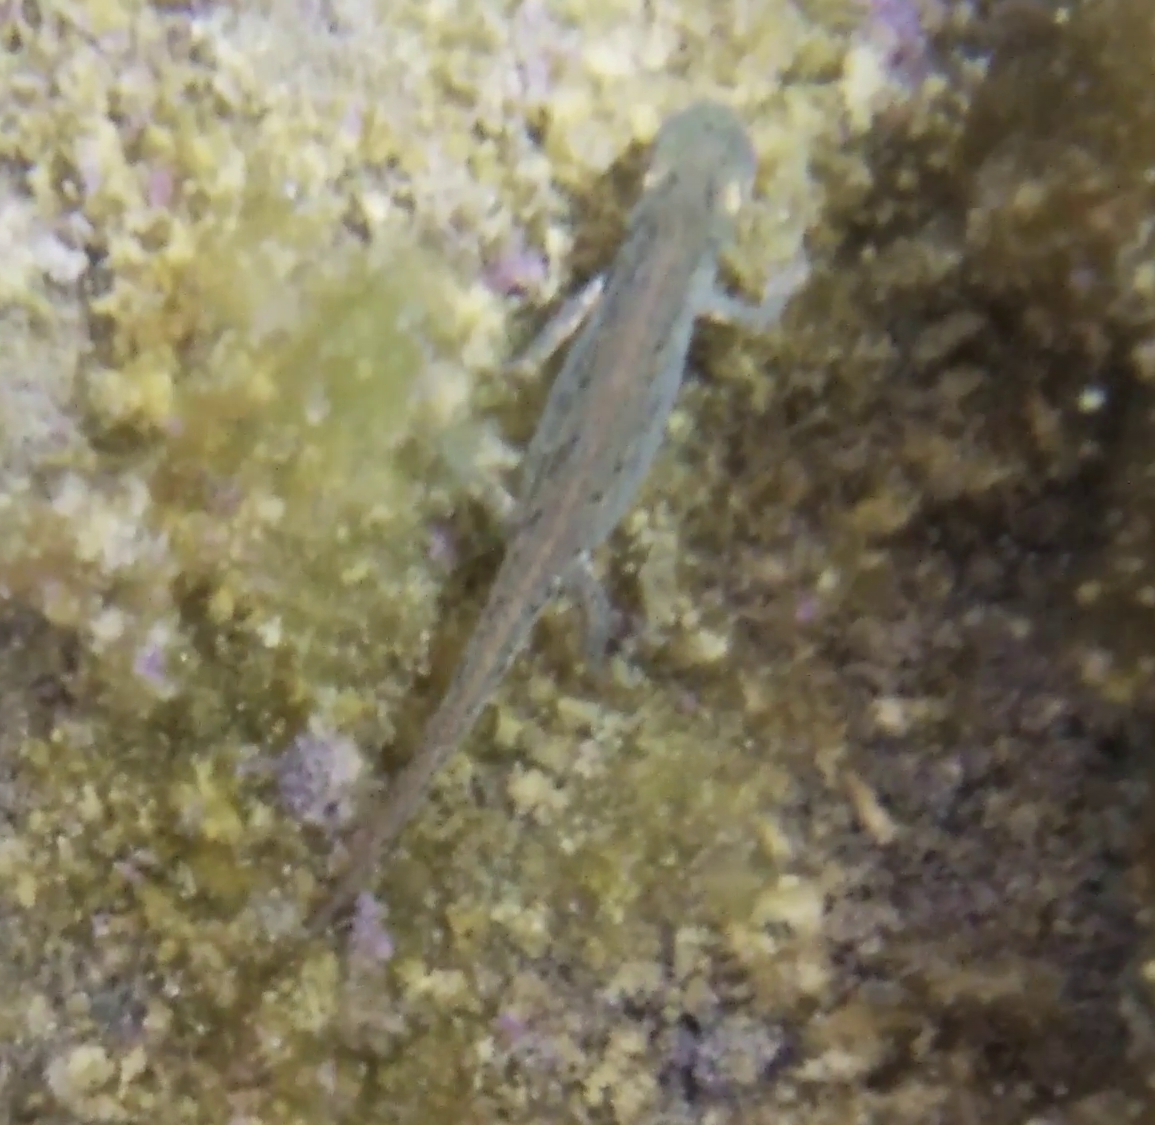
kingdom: Animalia
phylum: Chordata
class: Amphibia
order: Caudata
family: Salamandridae
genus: Lissotriton
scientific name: Lissotriton italicus
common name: Italian newt
